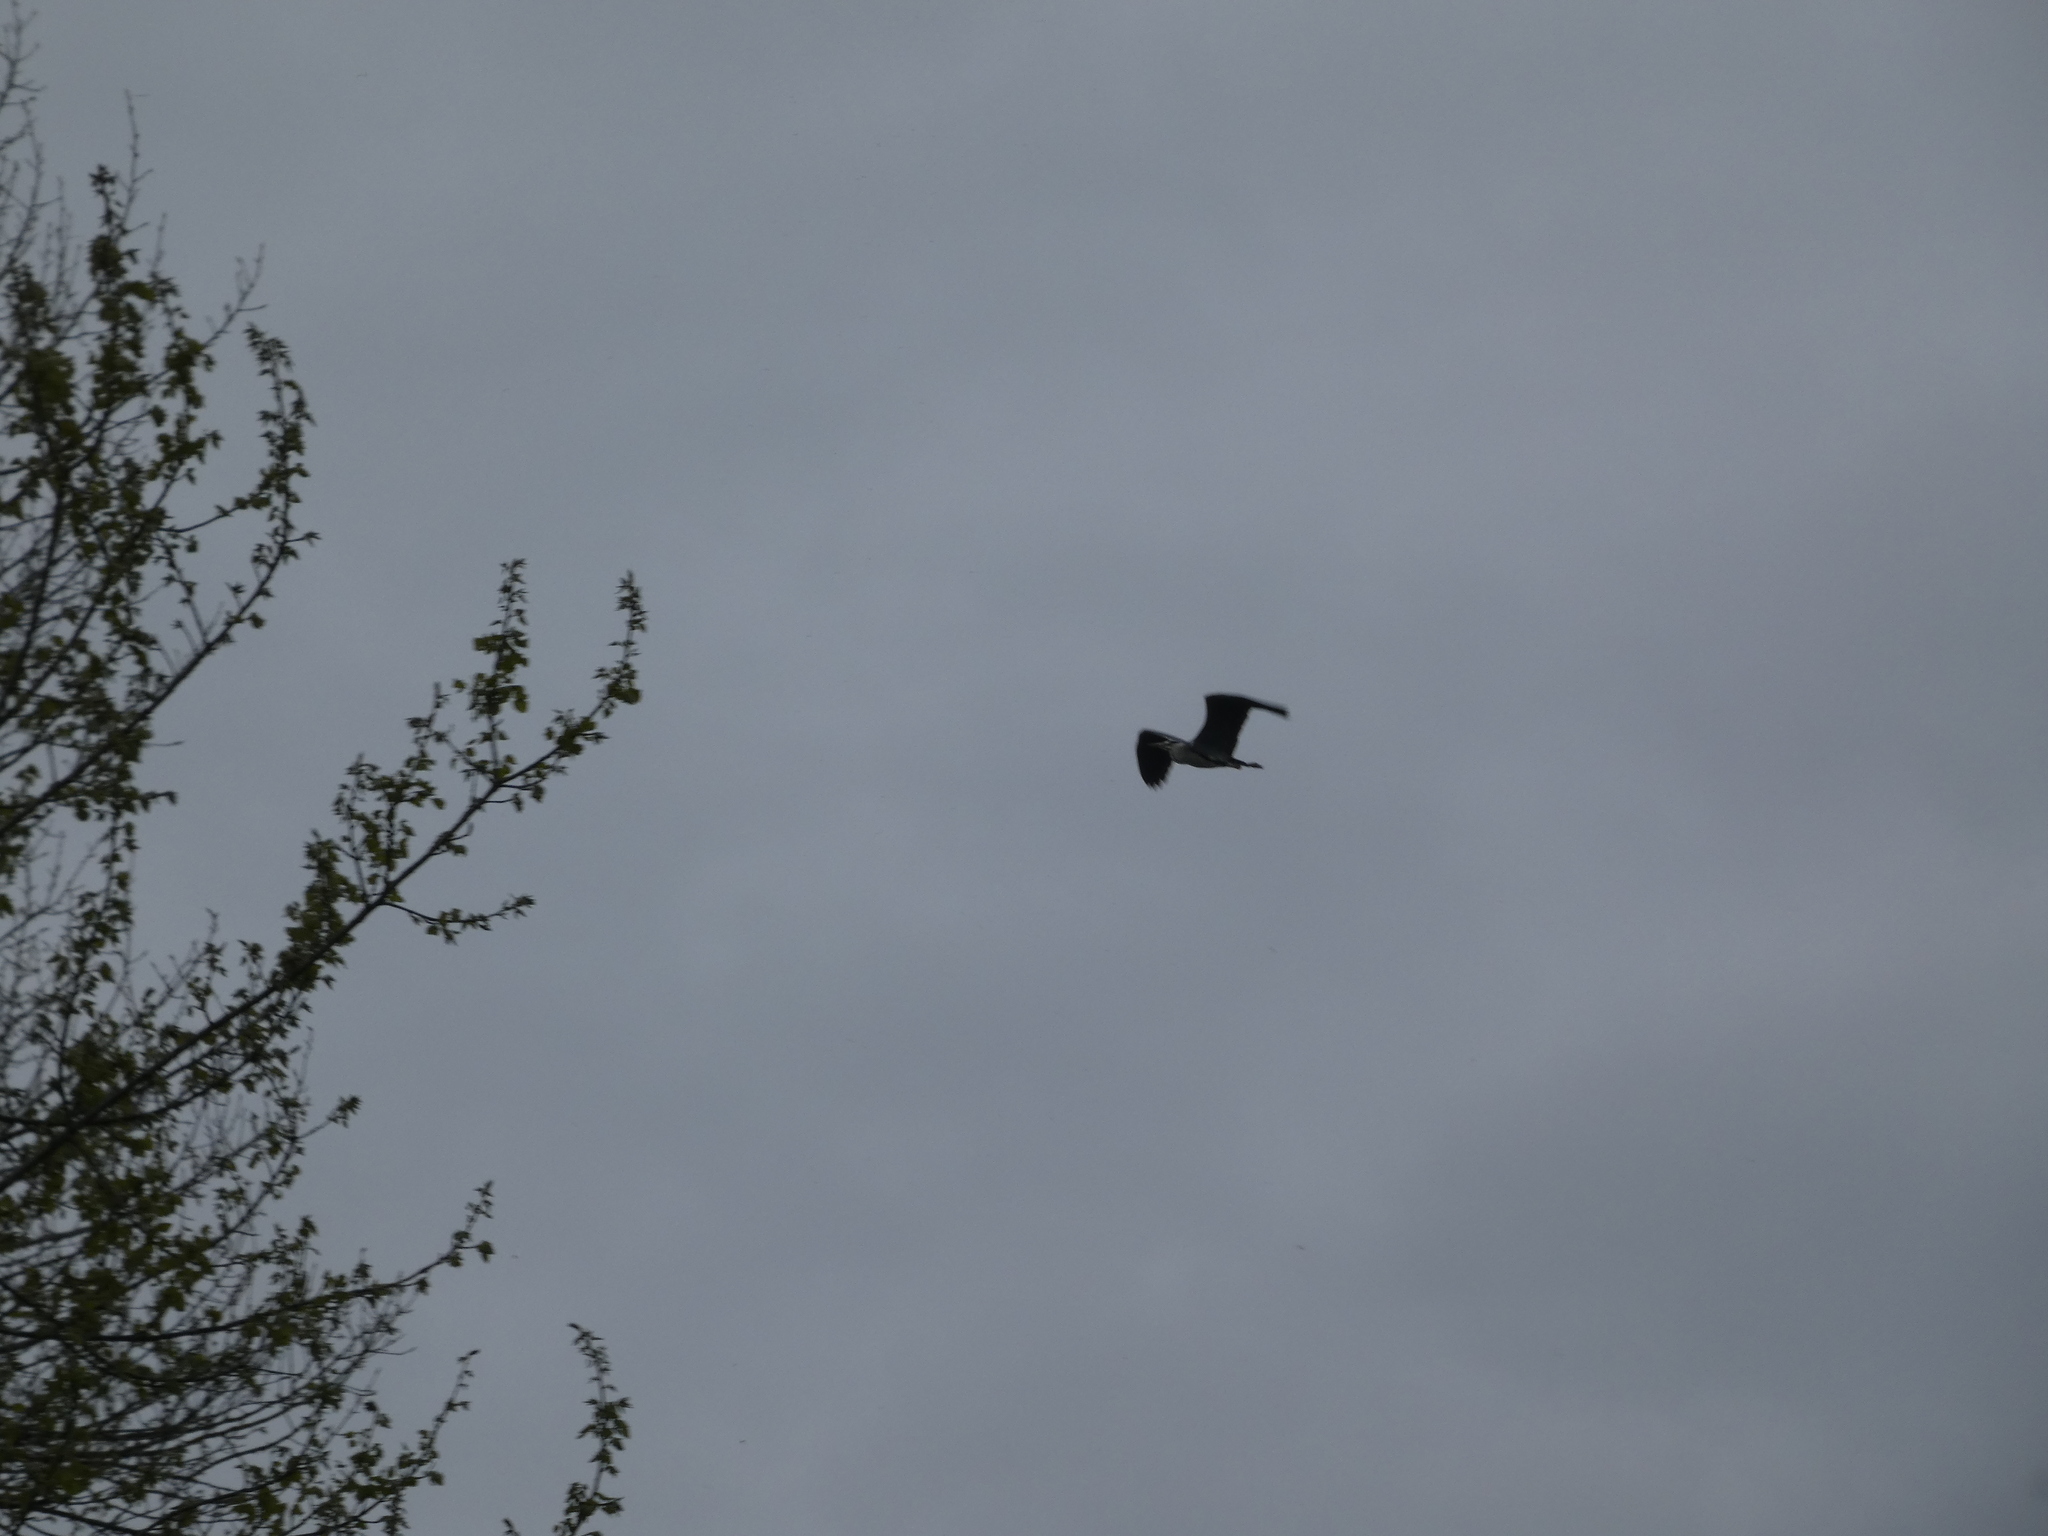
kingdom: Animalia
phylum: Chordata
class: Aves
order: Pelecaniformes
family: Ardeidae
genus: Ardea
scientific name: Ardea cinerea
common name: Grey heron
